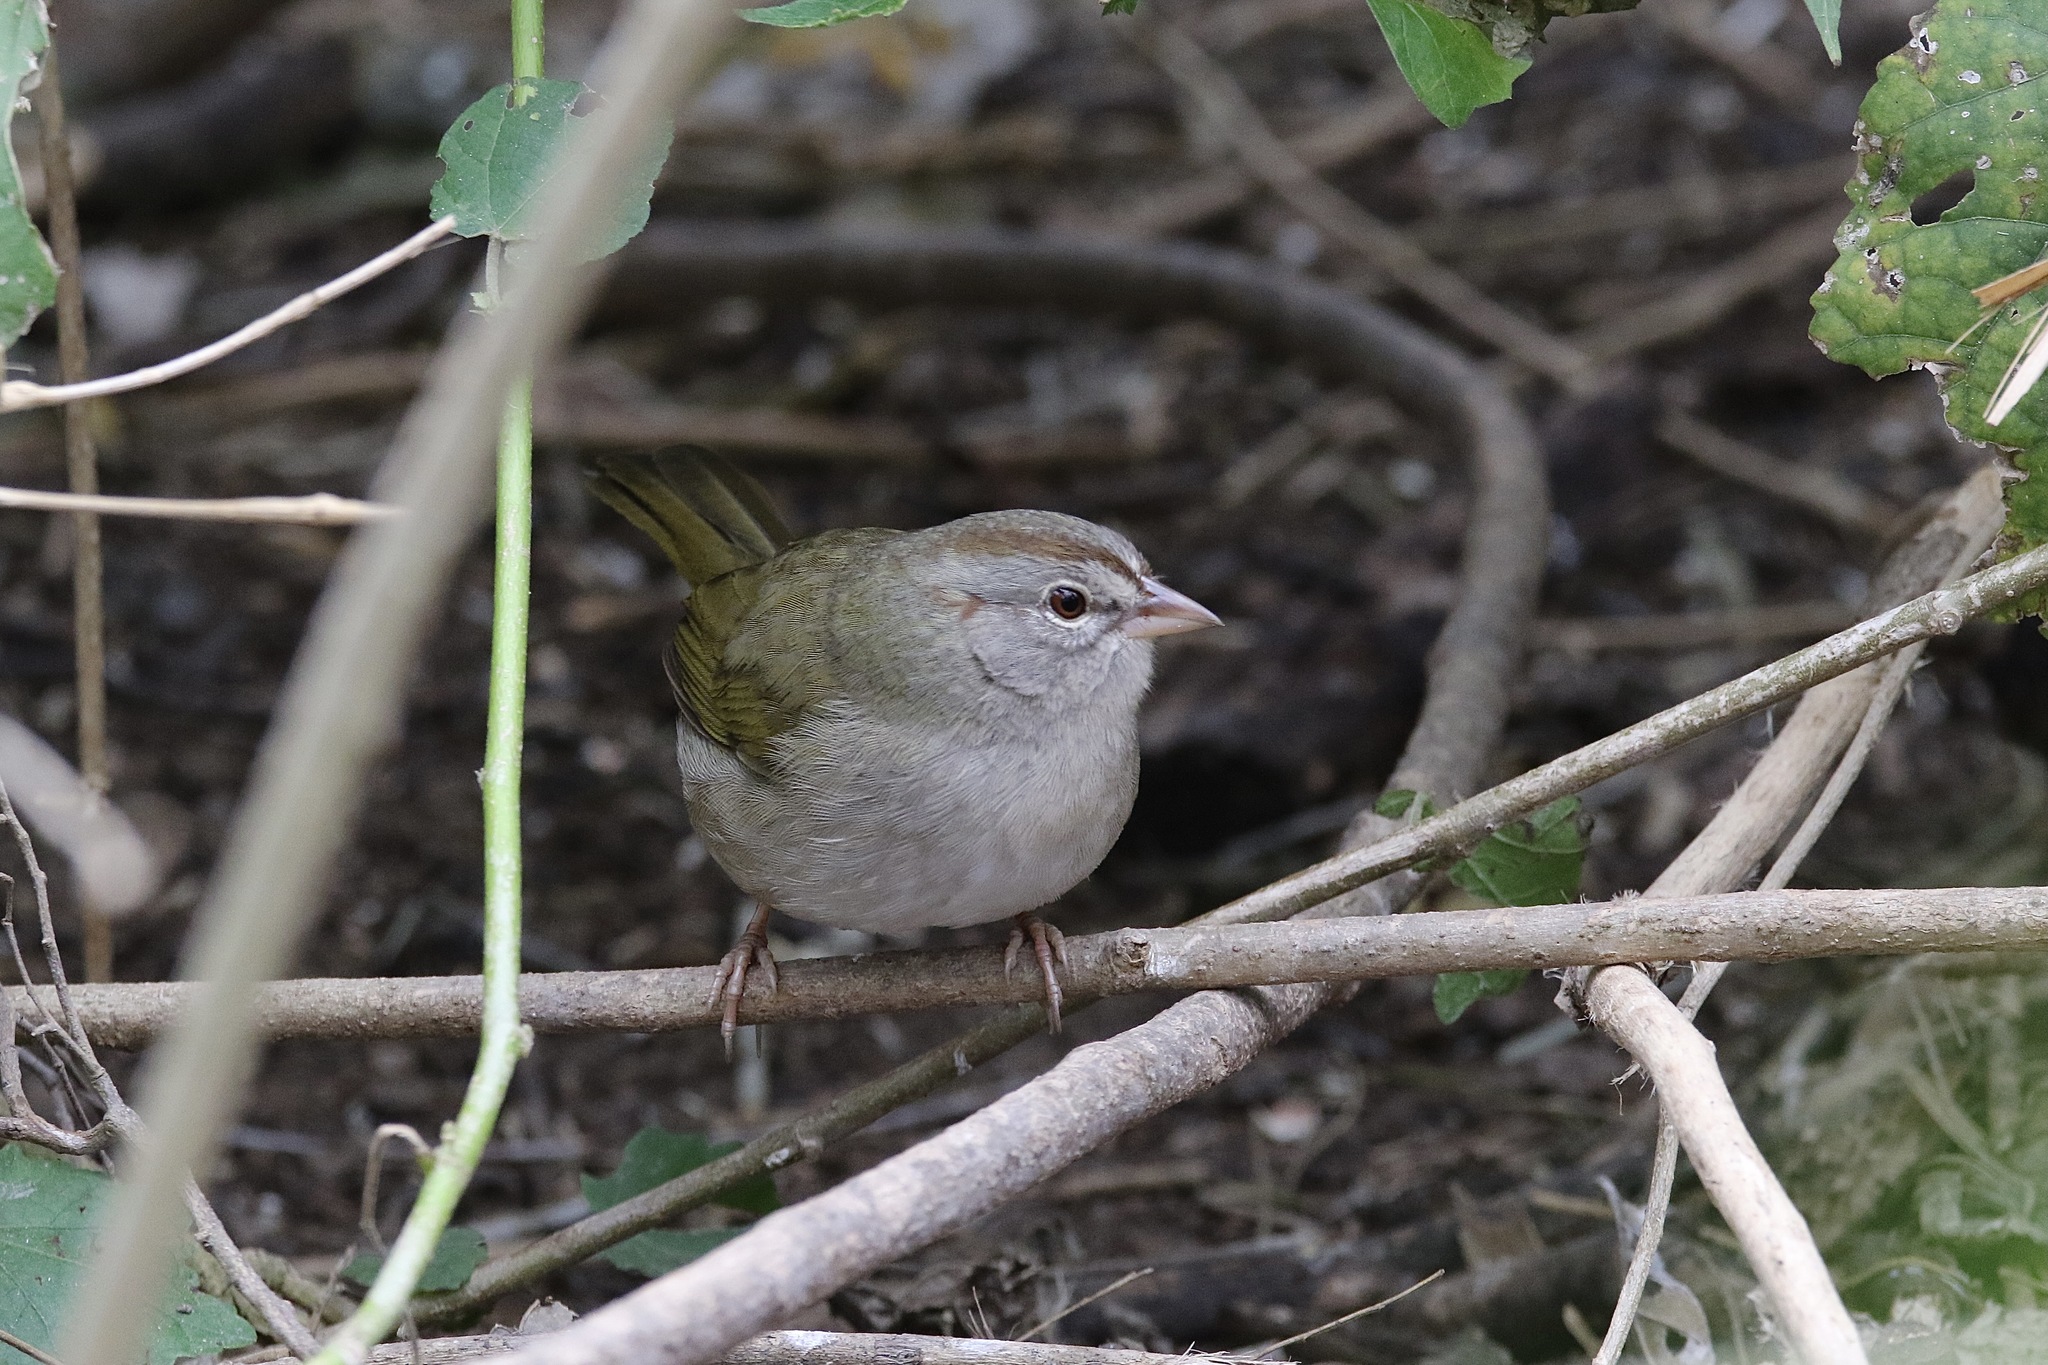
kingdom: Animalia
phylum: Chordata
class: Aves
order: Passeriformes
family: Passerellidae
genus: Arremonops
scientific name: Arremonops rufivirgatus
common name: Olive sparrow
